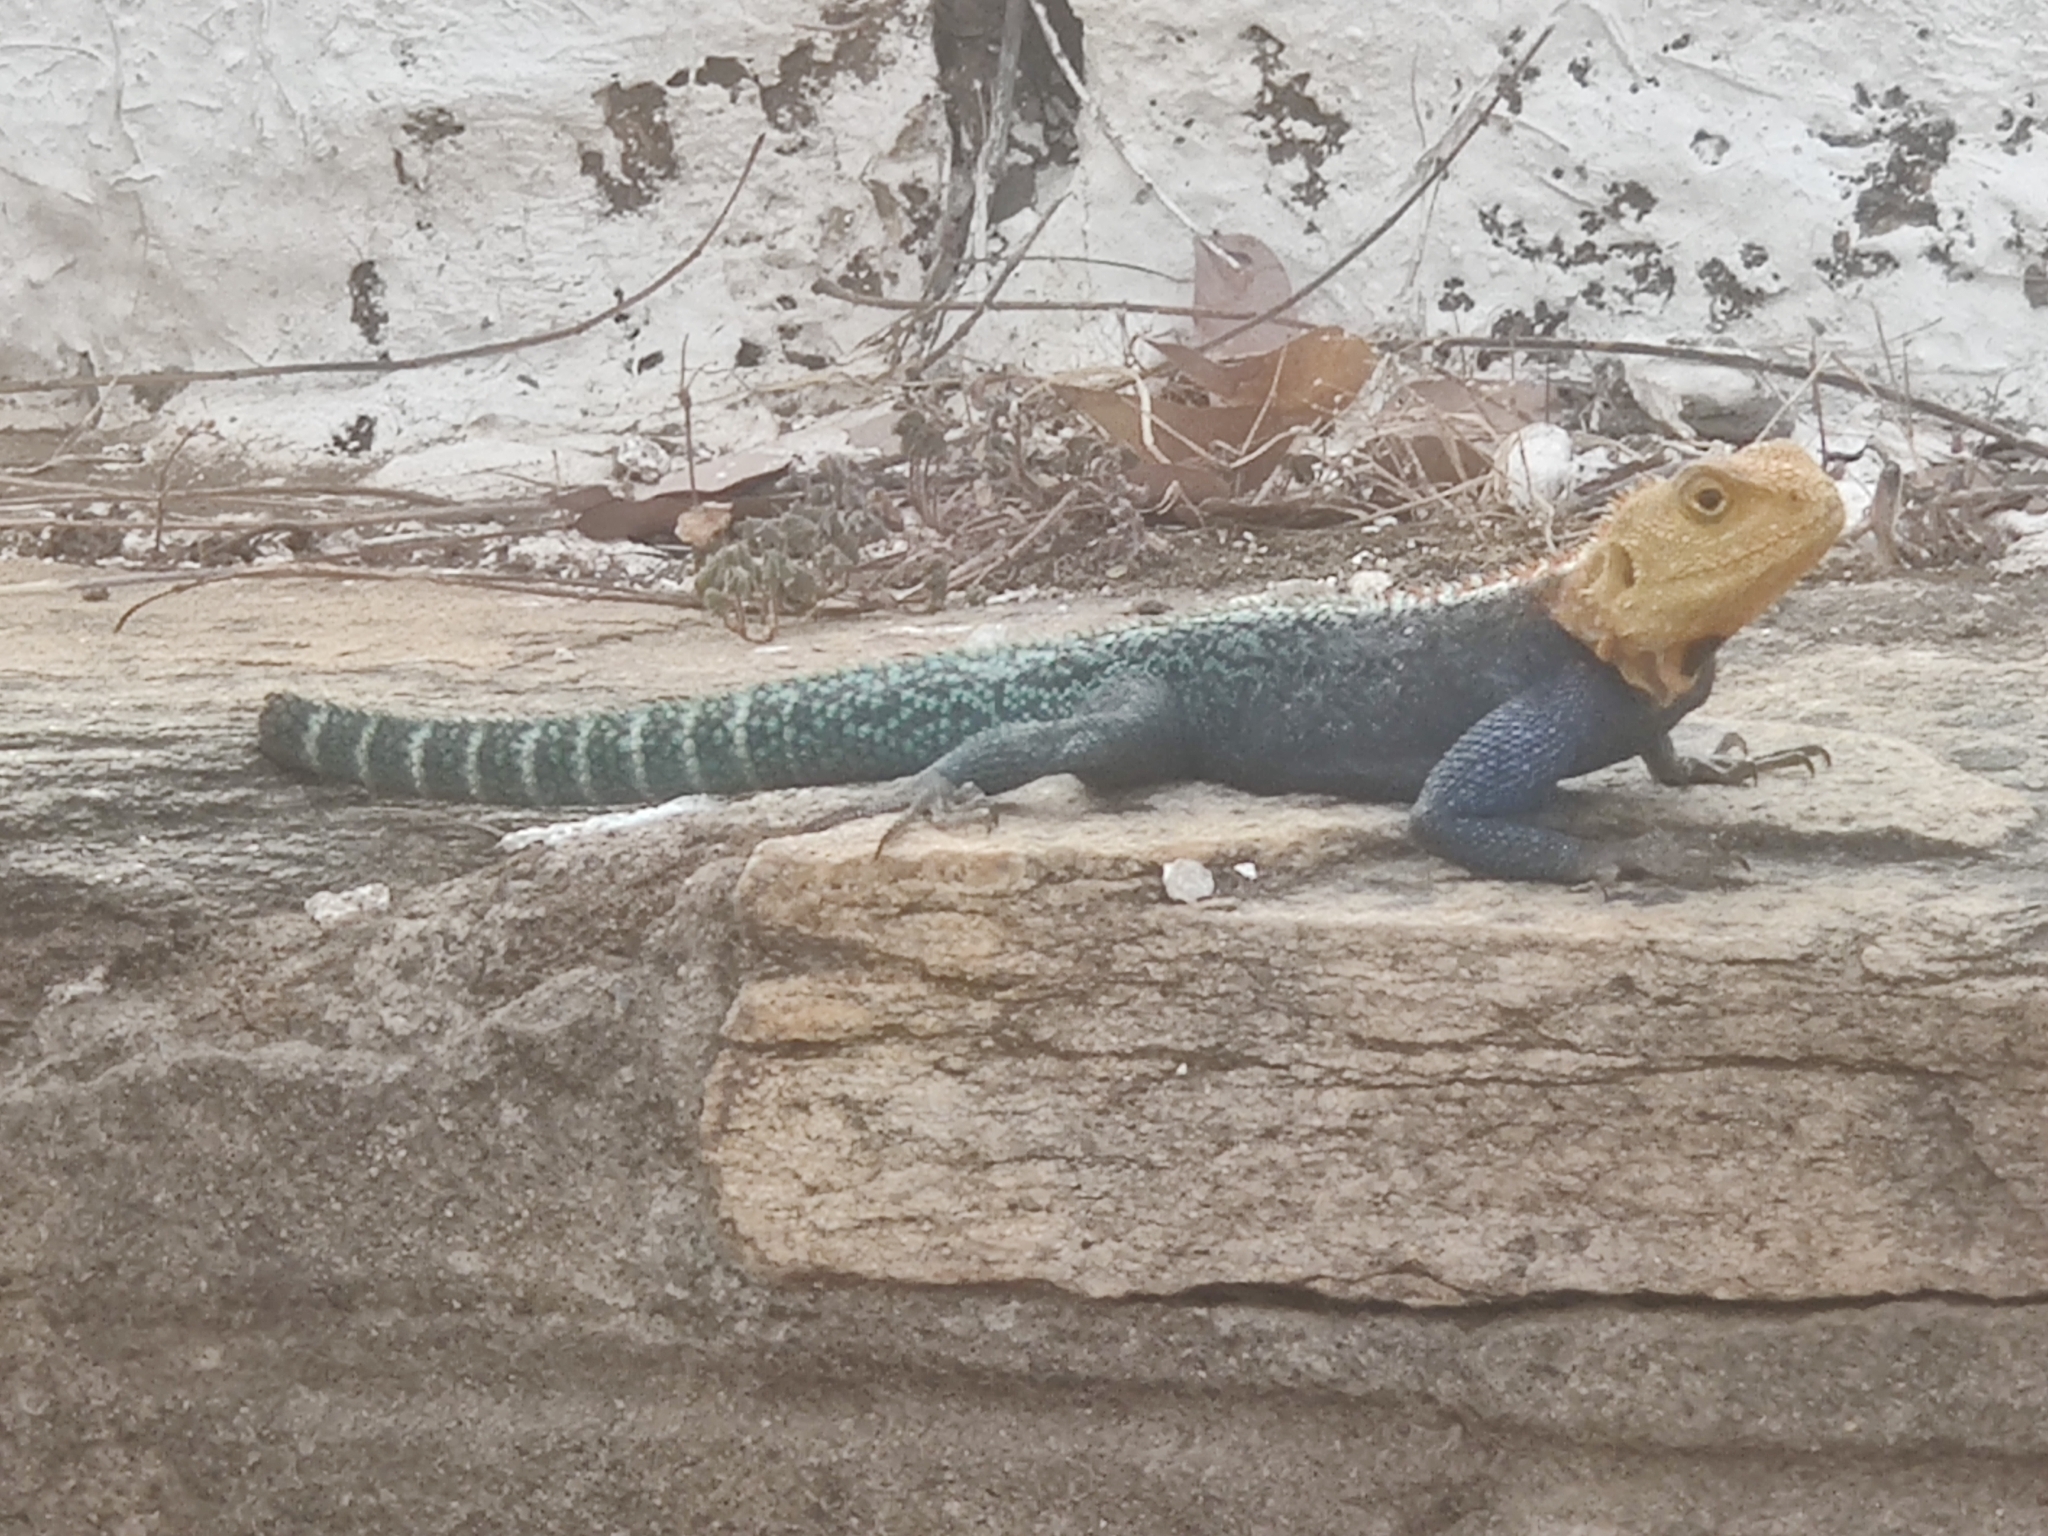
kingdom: Animalia
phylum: Chordata
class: Squamata
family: Agamidae
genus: Agama
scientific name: Agama kirkii
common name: Kirk's rock agama
